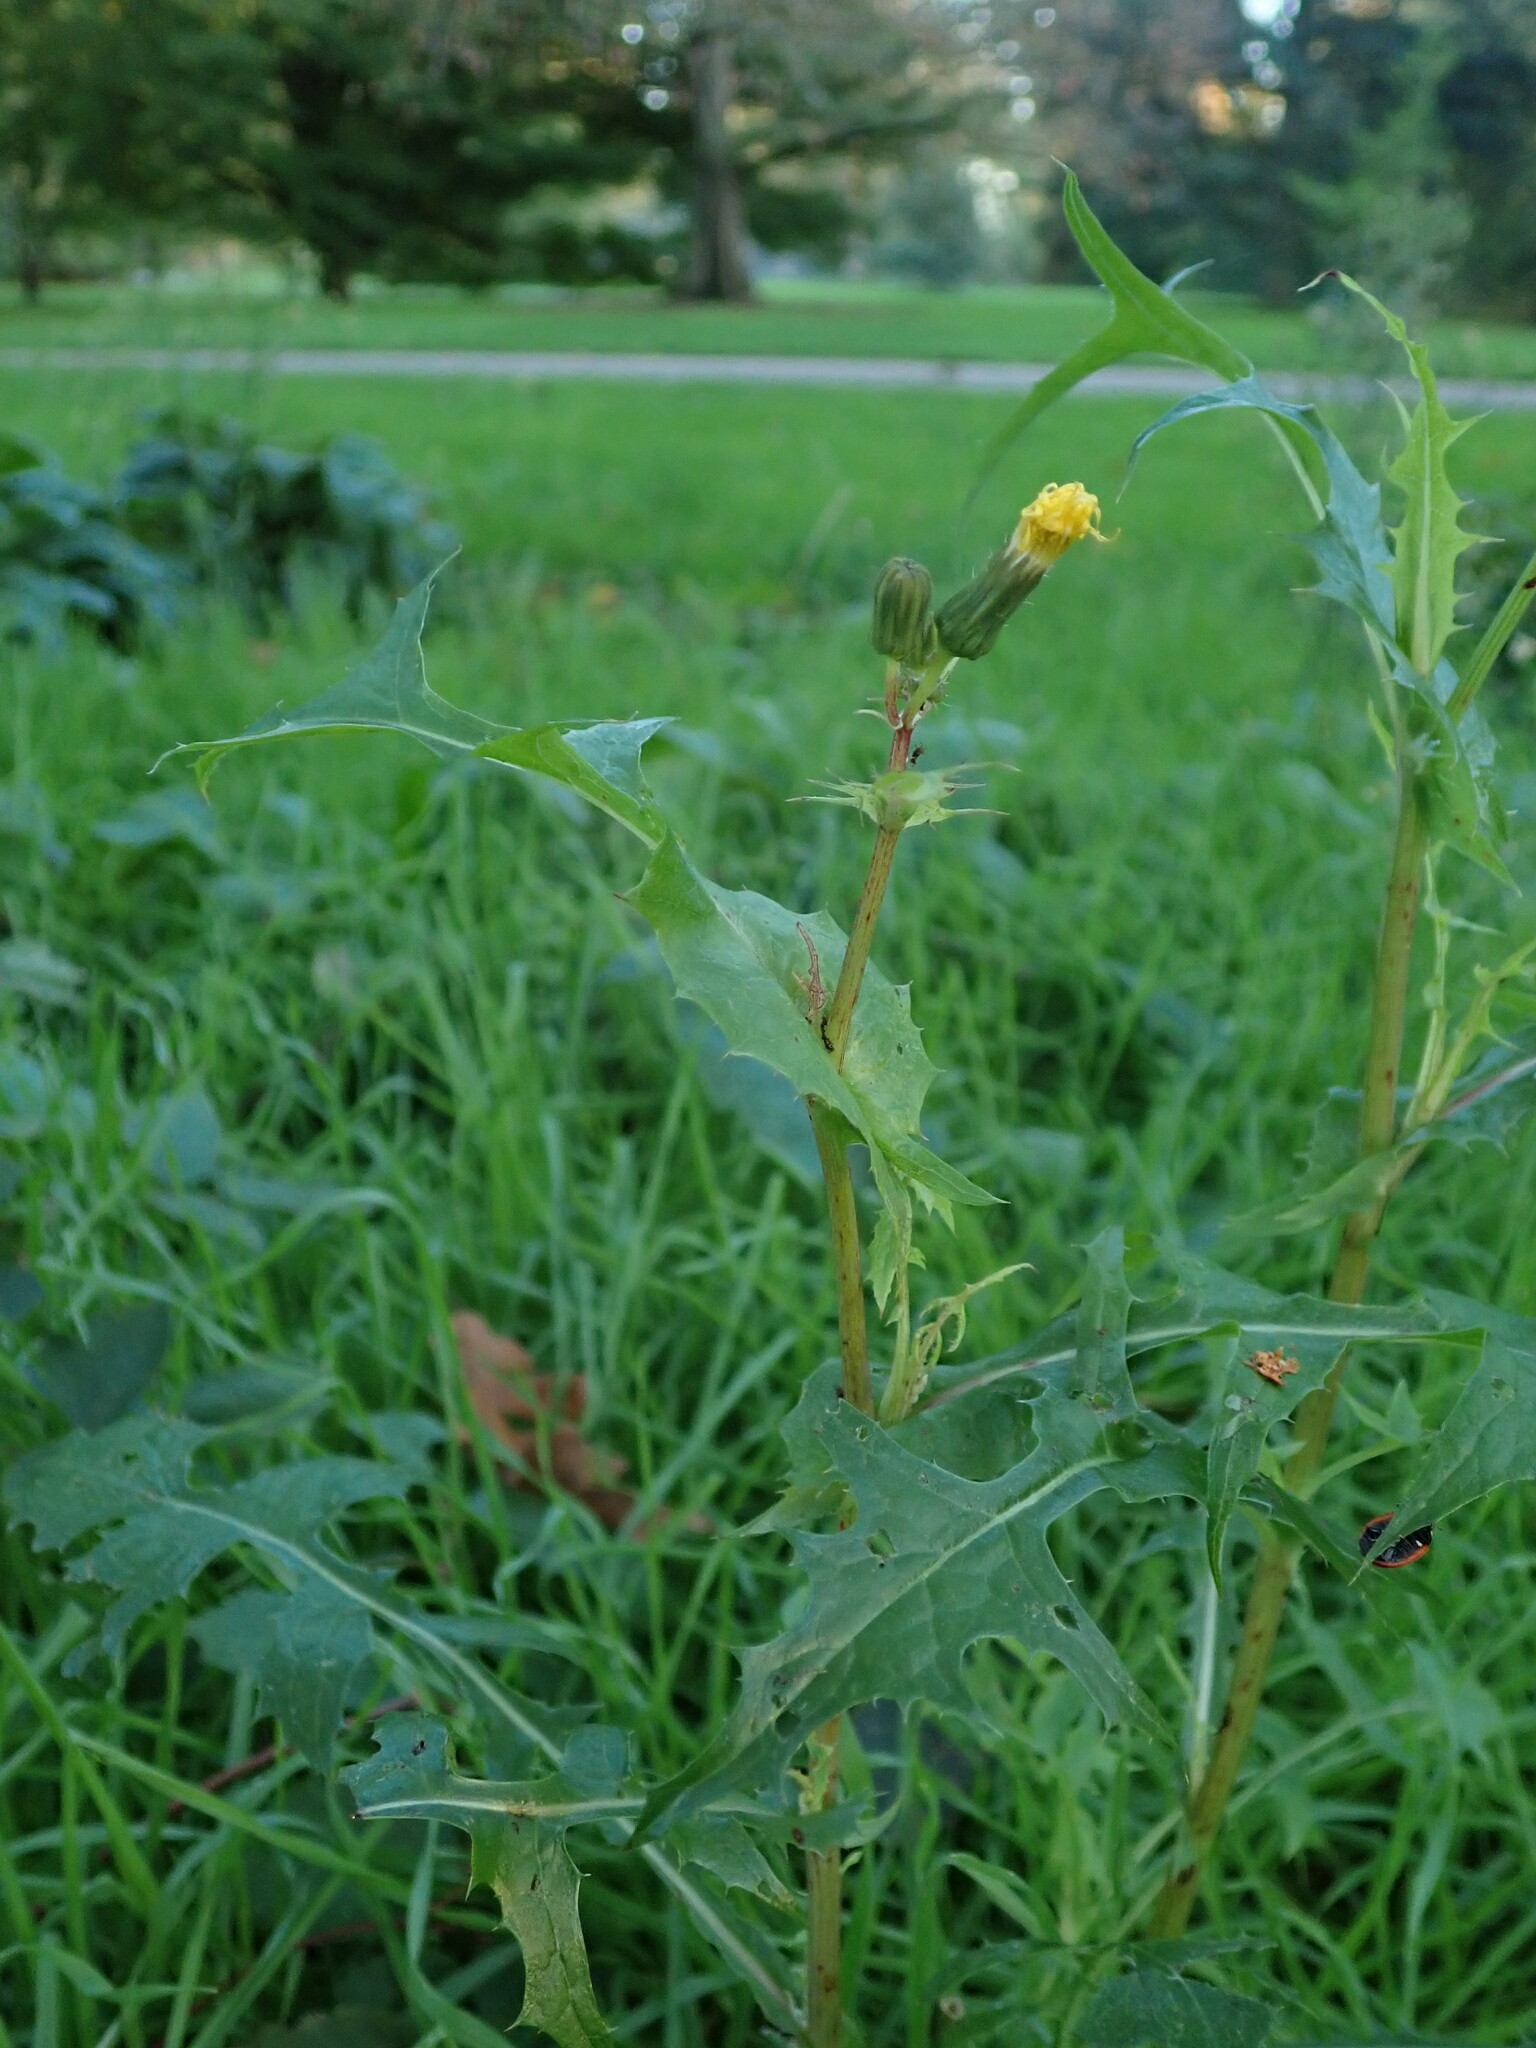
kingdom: Plantae
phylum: Tracheophyta
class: Magnoliopsida
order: Asterales
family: Asteraceae
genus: Sonchus
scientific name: Sonchus oleraceus
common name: Common sowthistle
